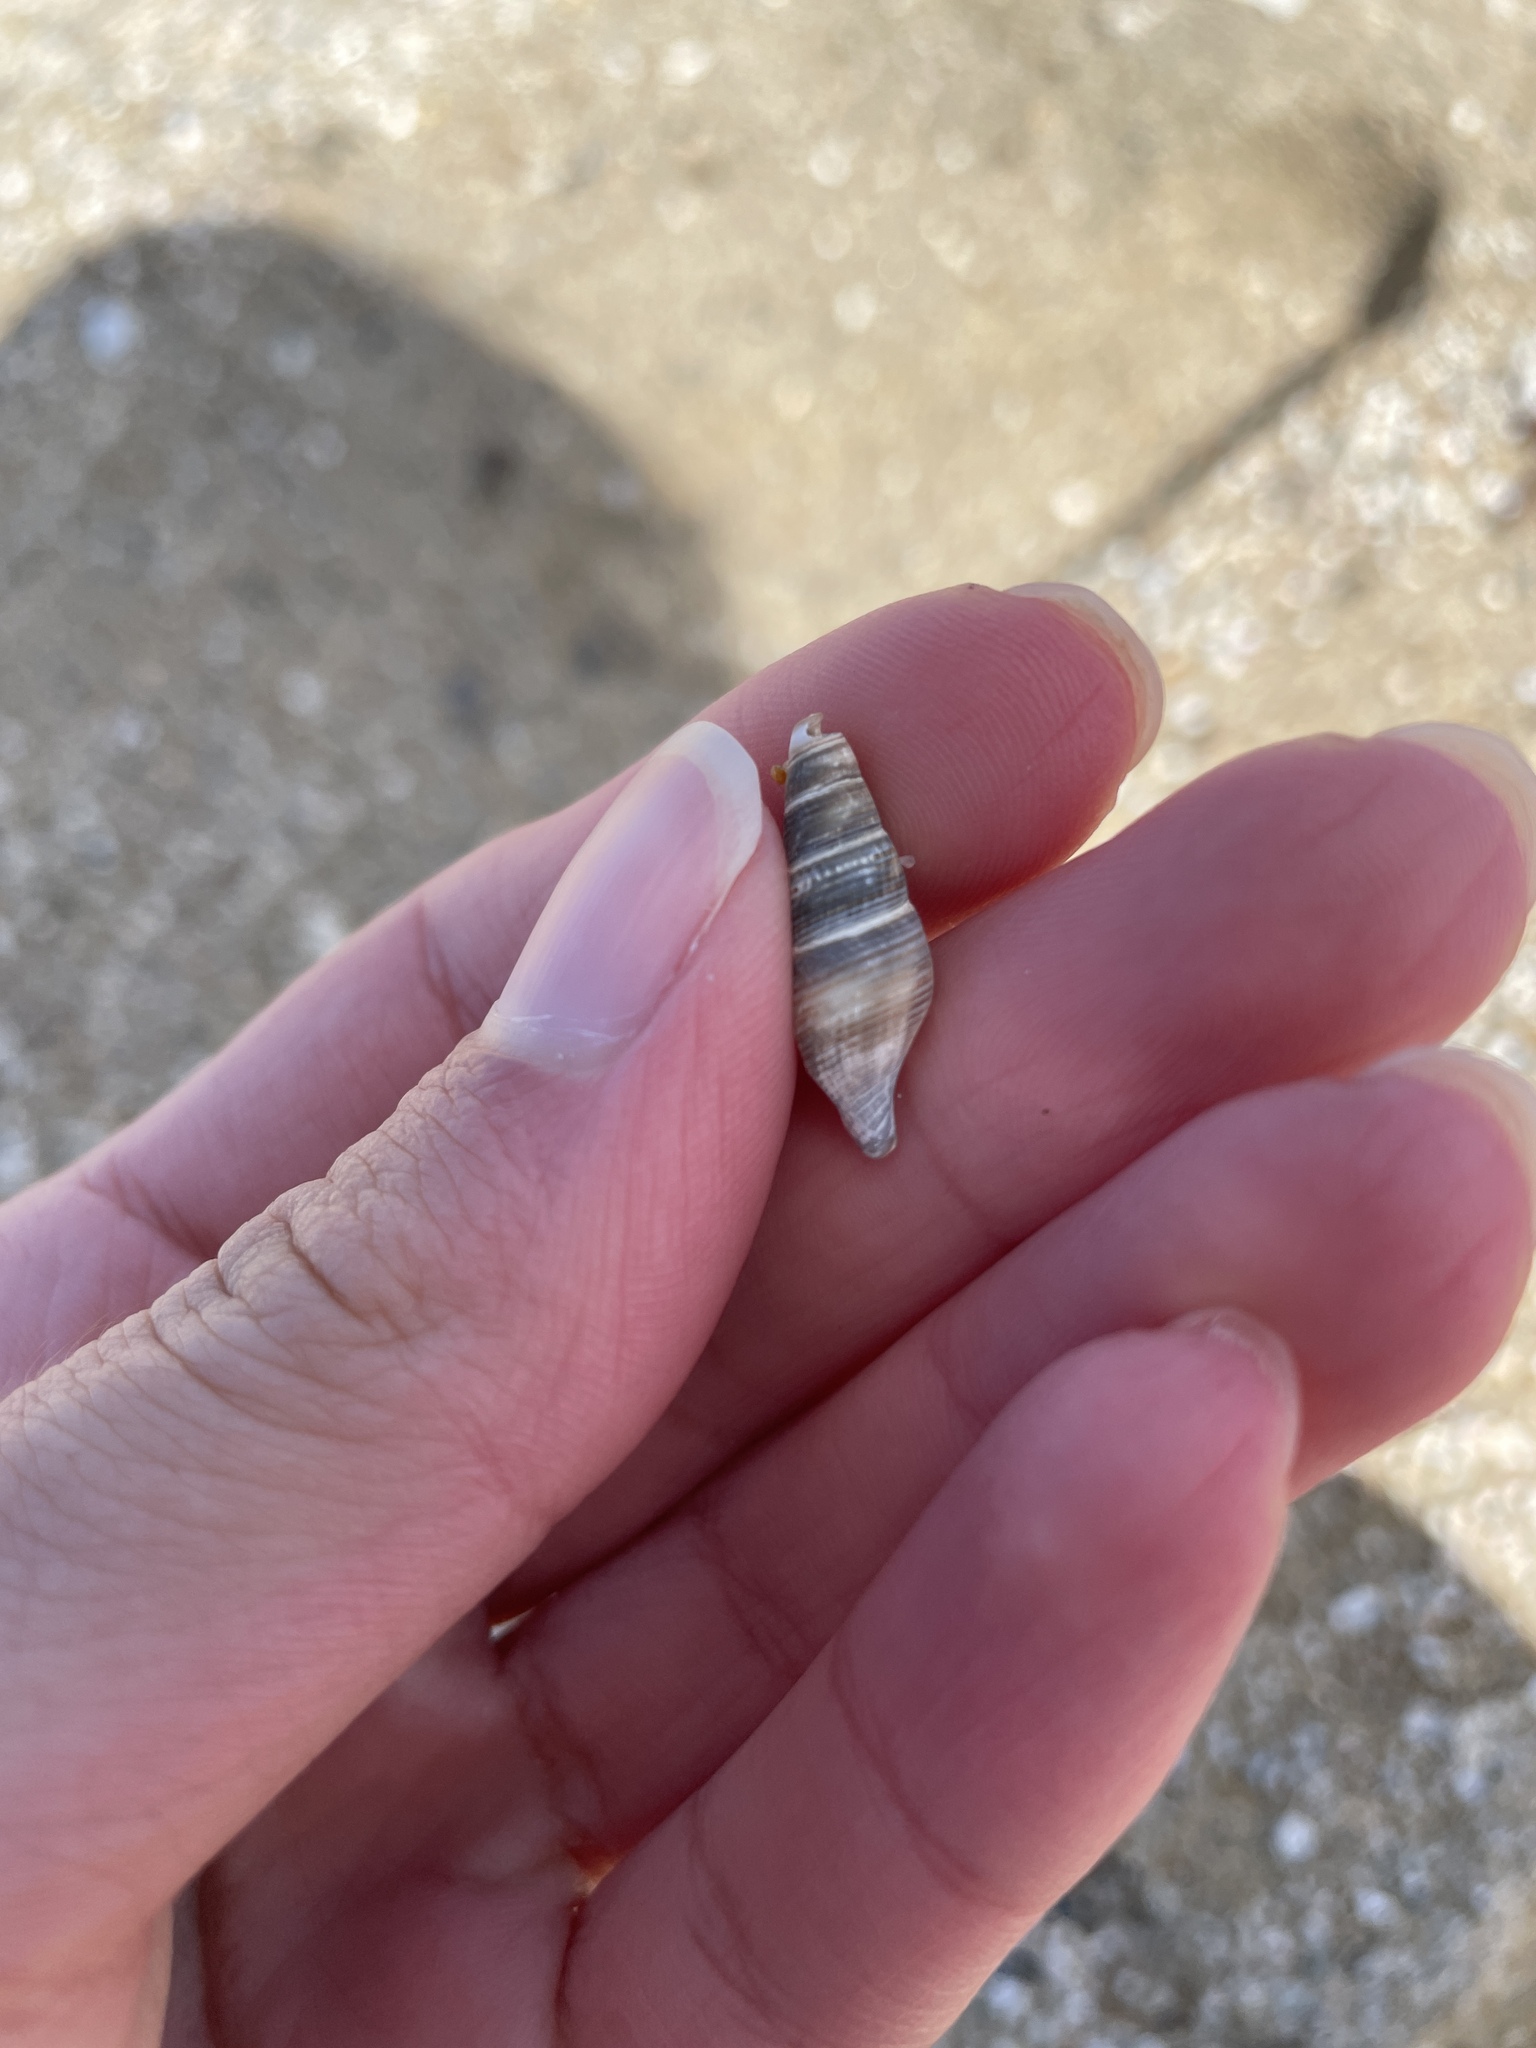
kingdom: Animalia
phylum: Mollusca
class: Gastropoda
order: Neogastropoda
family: Borsoniidae
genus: Ophiodermella
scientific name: Ophiodermella inermis
